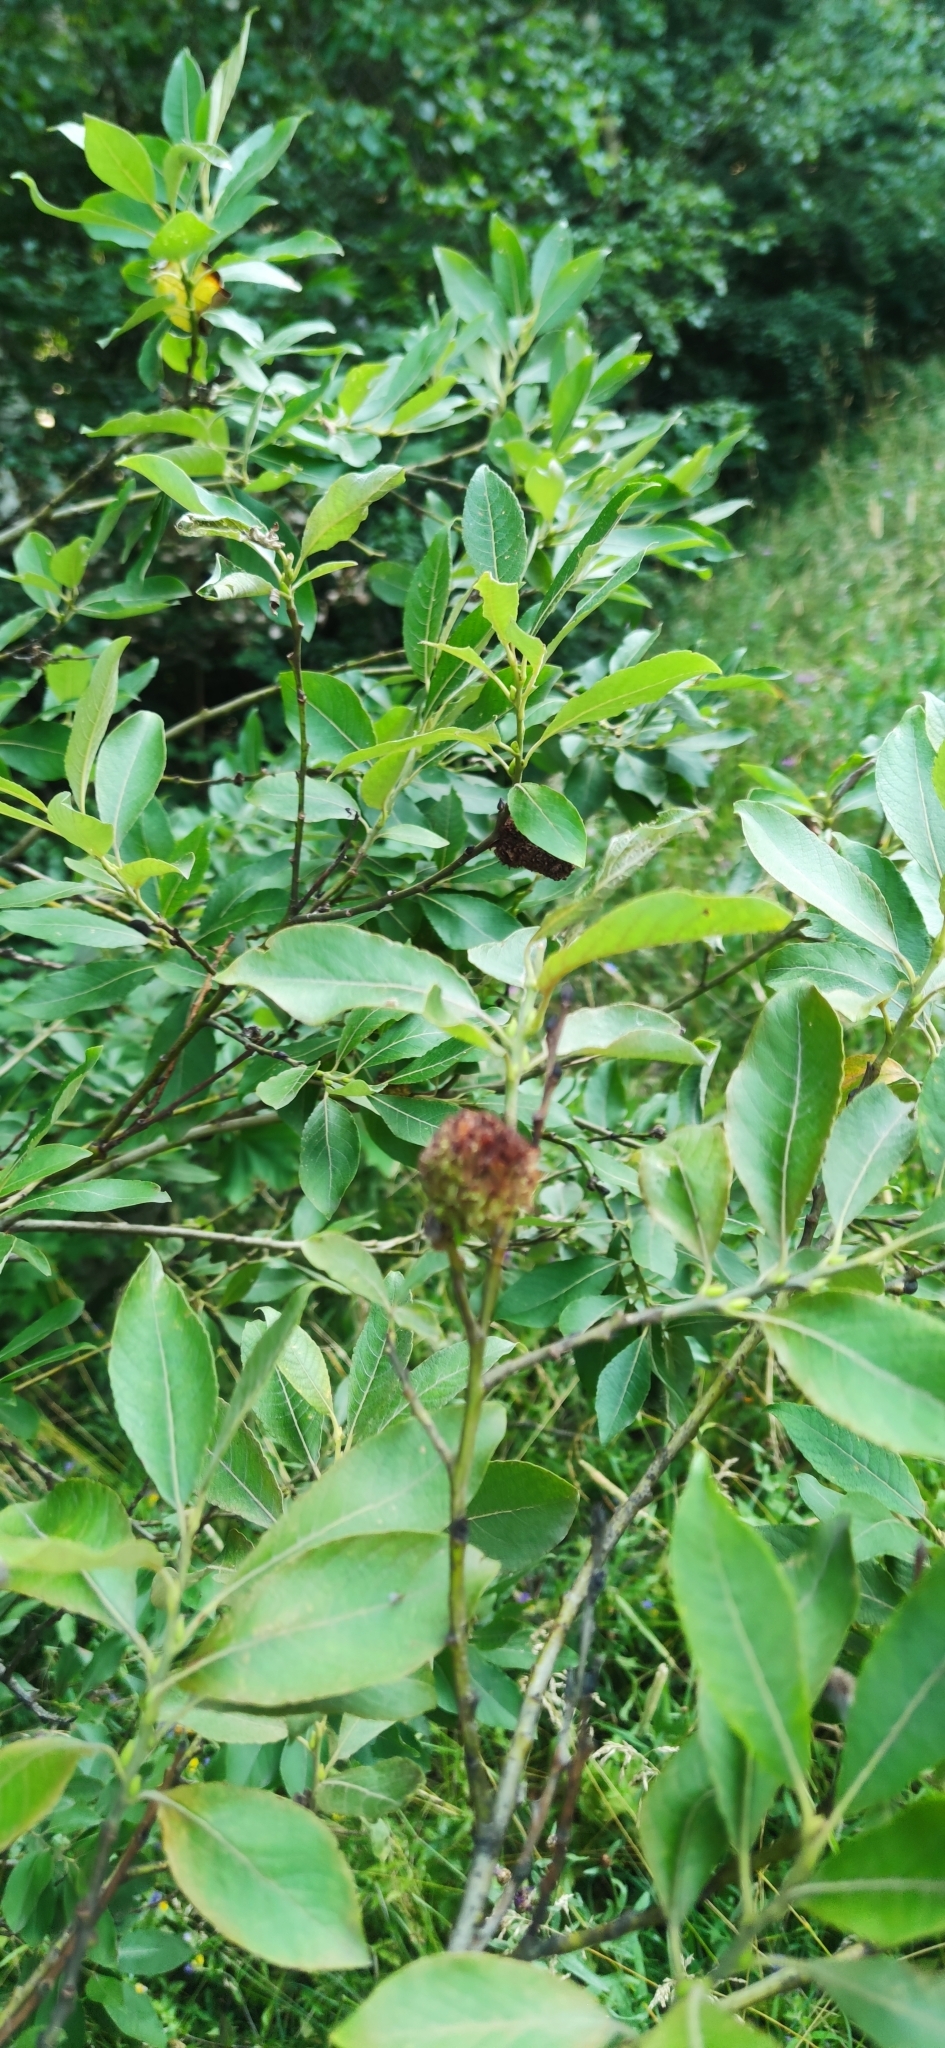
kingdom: Animalia
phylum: Arthropoda
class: Arachnida
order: Trombidiformes
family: Eriophyidae
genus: Stenacis
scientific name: Stenacis triradiatus
